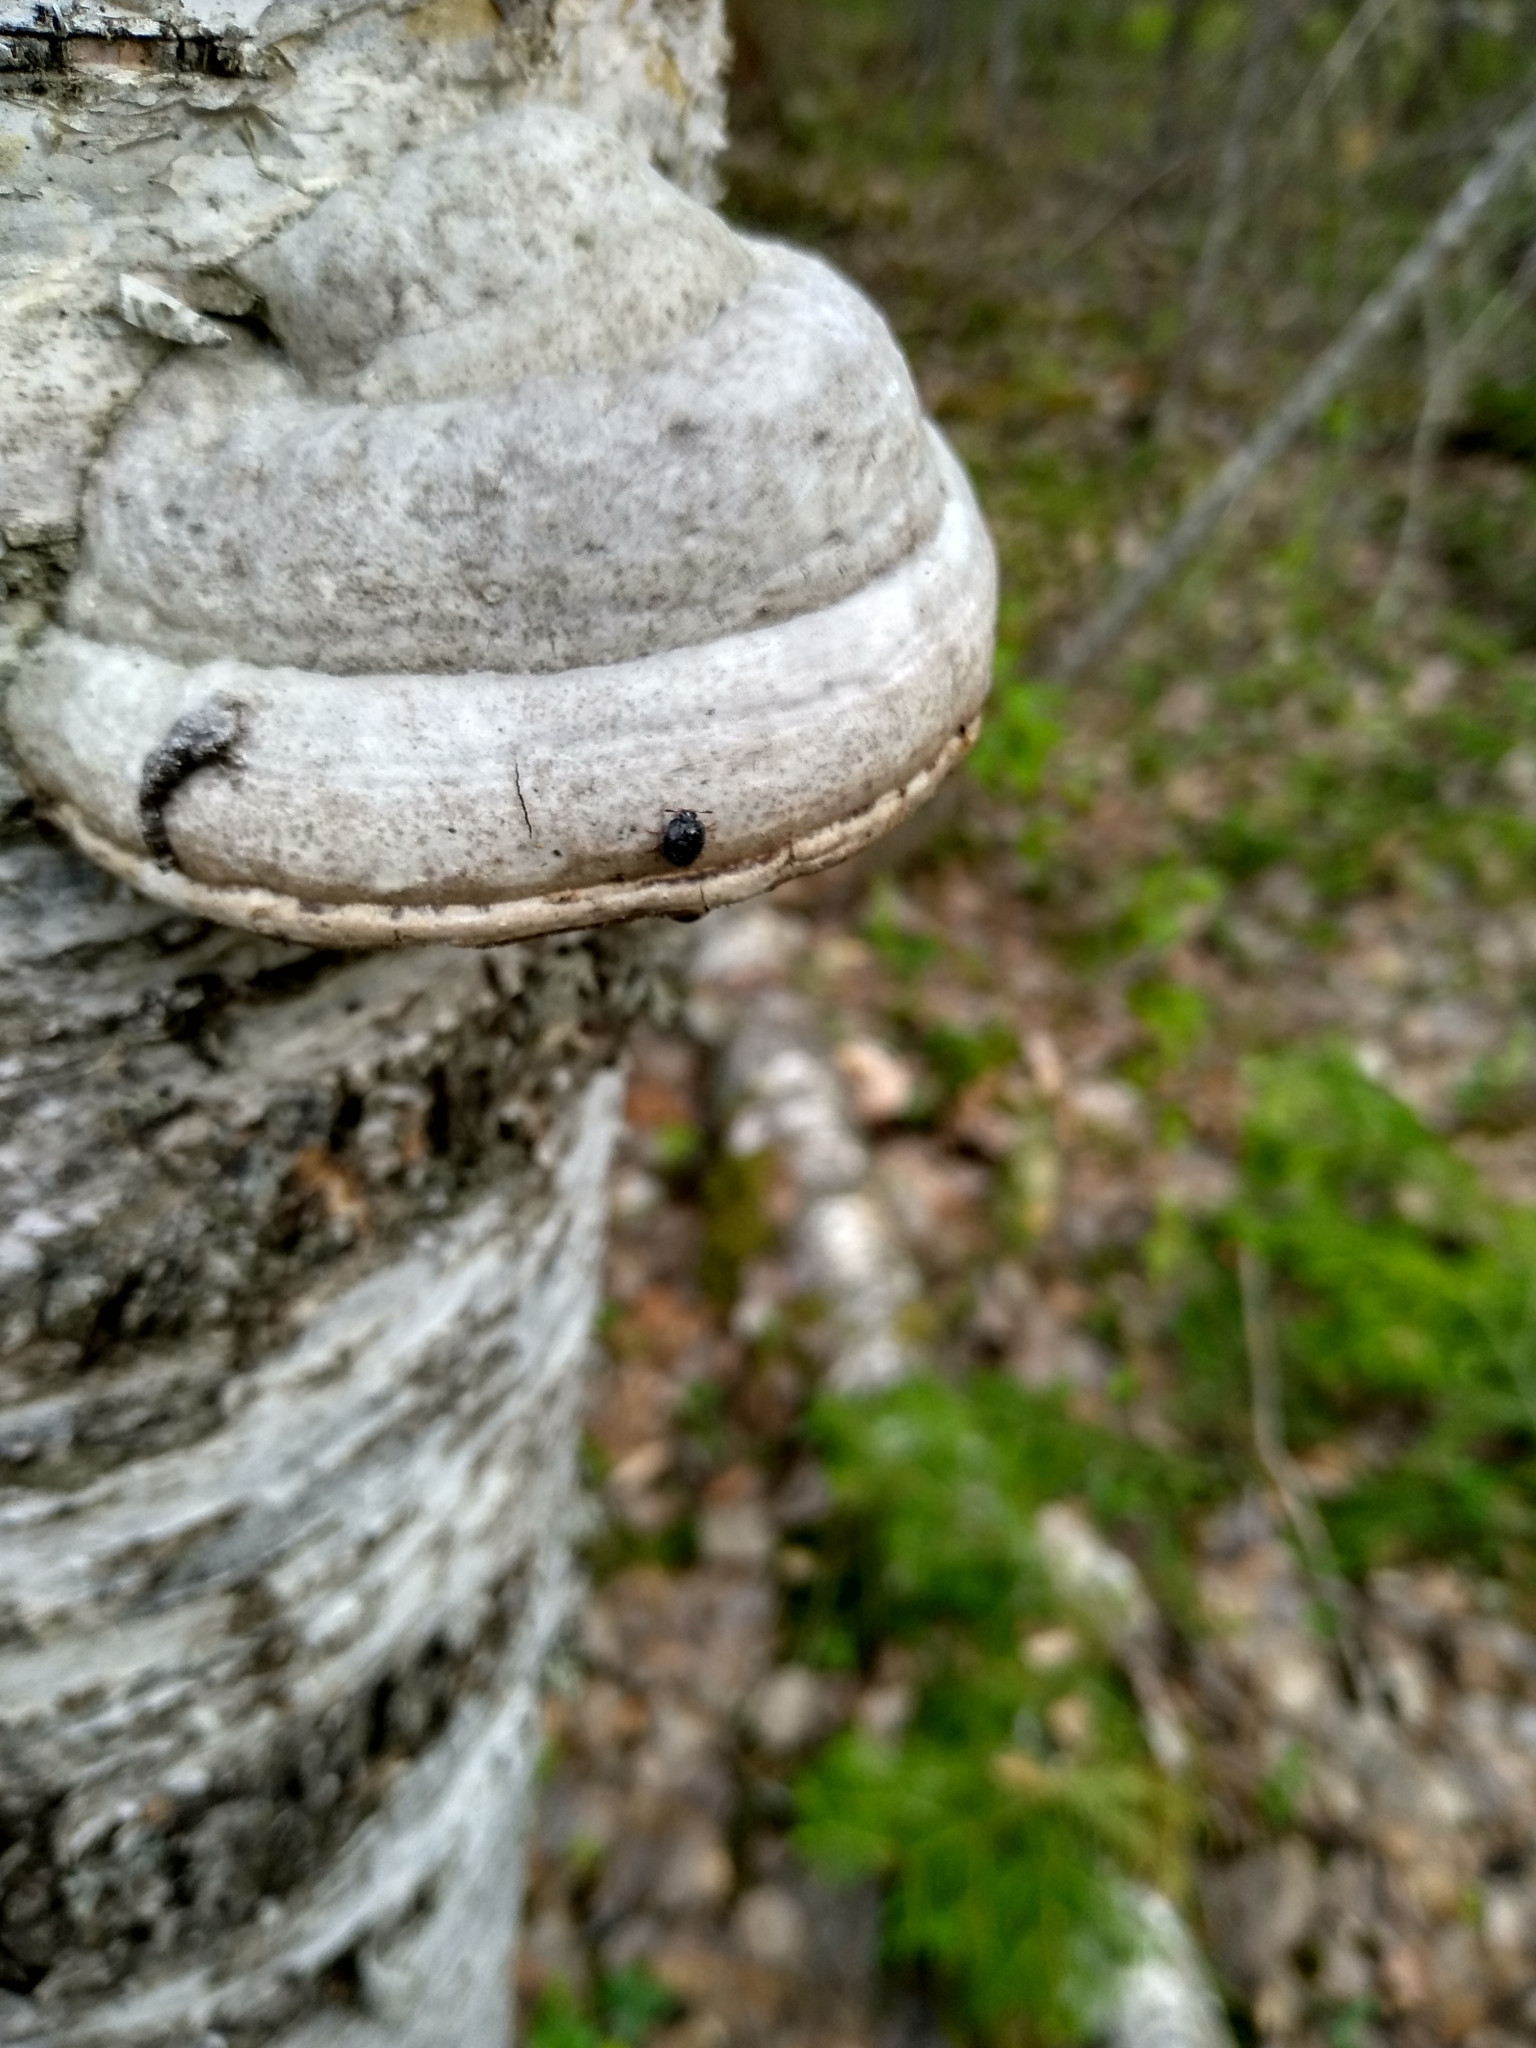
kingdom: Fungi
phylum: Basidiomycota
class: Agaricomycetes
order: Polyporales
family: Polyporaceae
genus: Fomes
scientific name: Fomes fomentarius
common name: Hoof fungus
